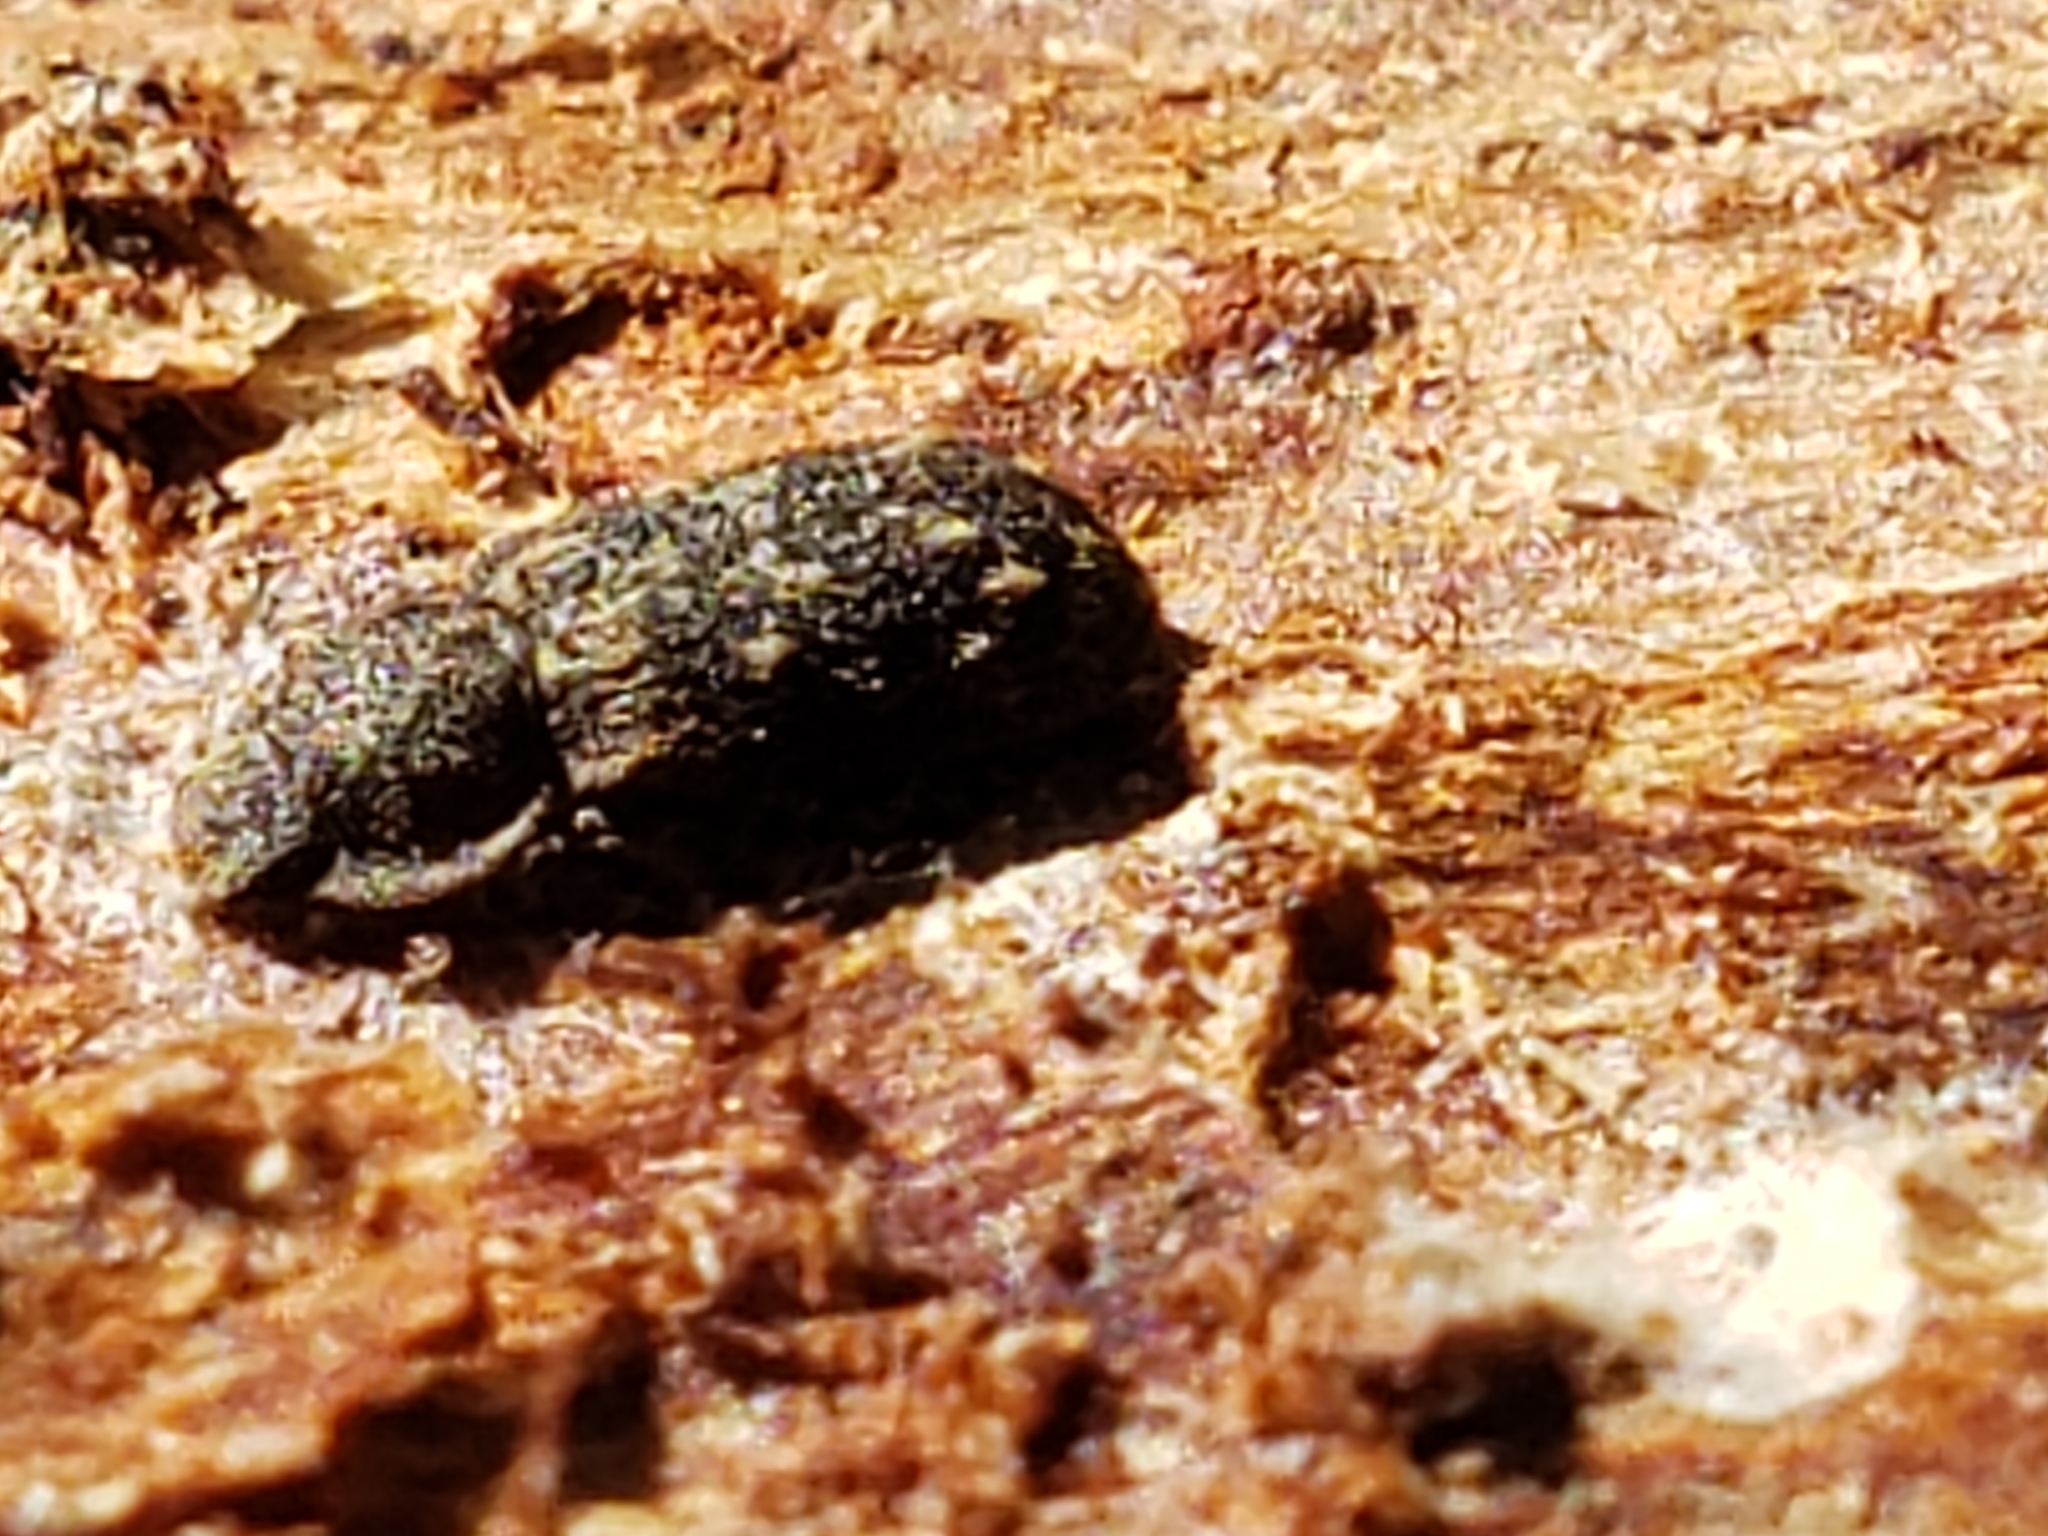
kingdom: Animalia
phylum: Arthropoda
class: Insecta
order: Coleoptera
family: Zopheridae
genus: Namunaria
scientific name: Namunaria guttulata
